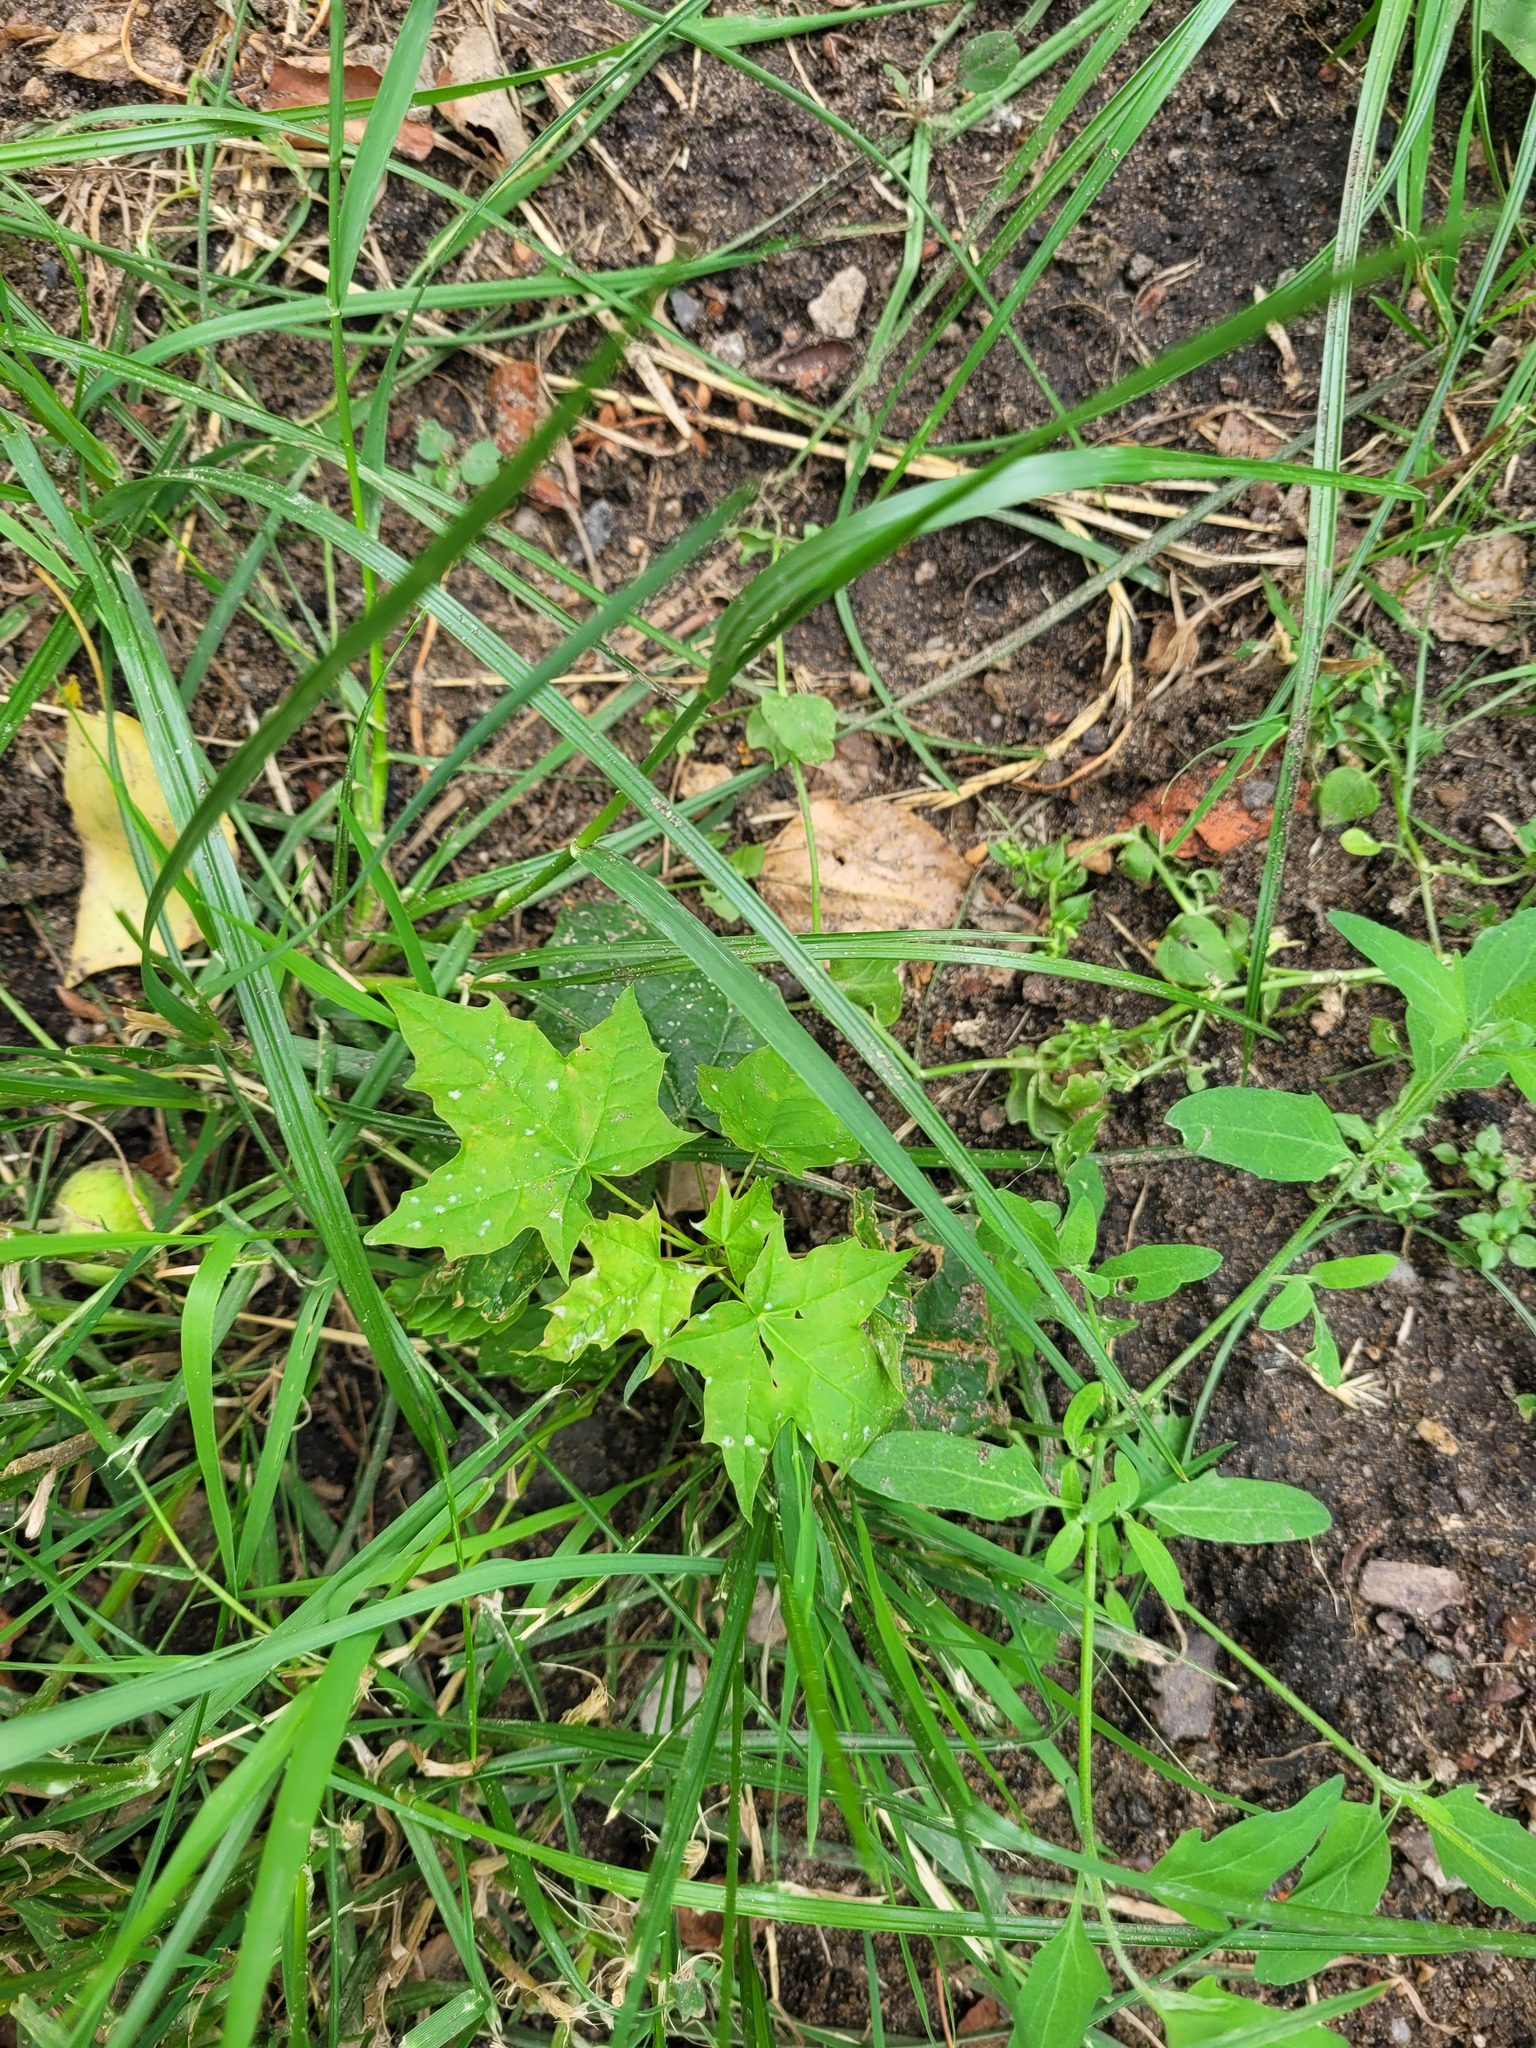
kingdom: Plantae
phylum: Tracheophyta
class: Magnoliopsida
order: Sapindales
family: Sapindaceae
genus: Acer
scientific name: Acer platanoides
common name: Norway maple
